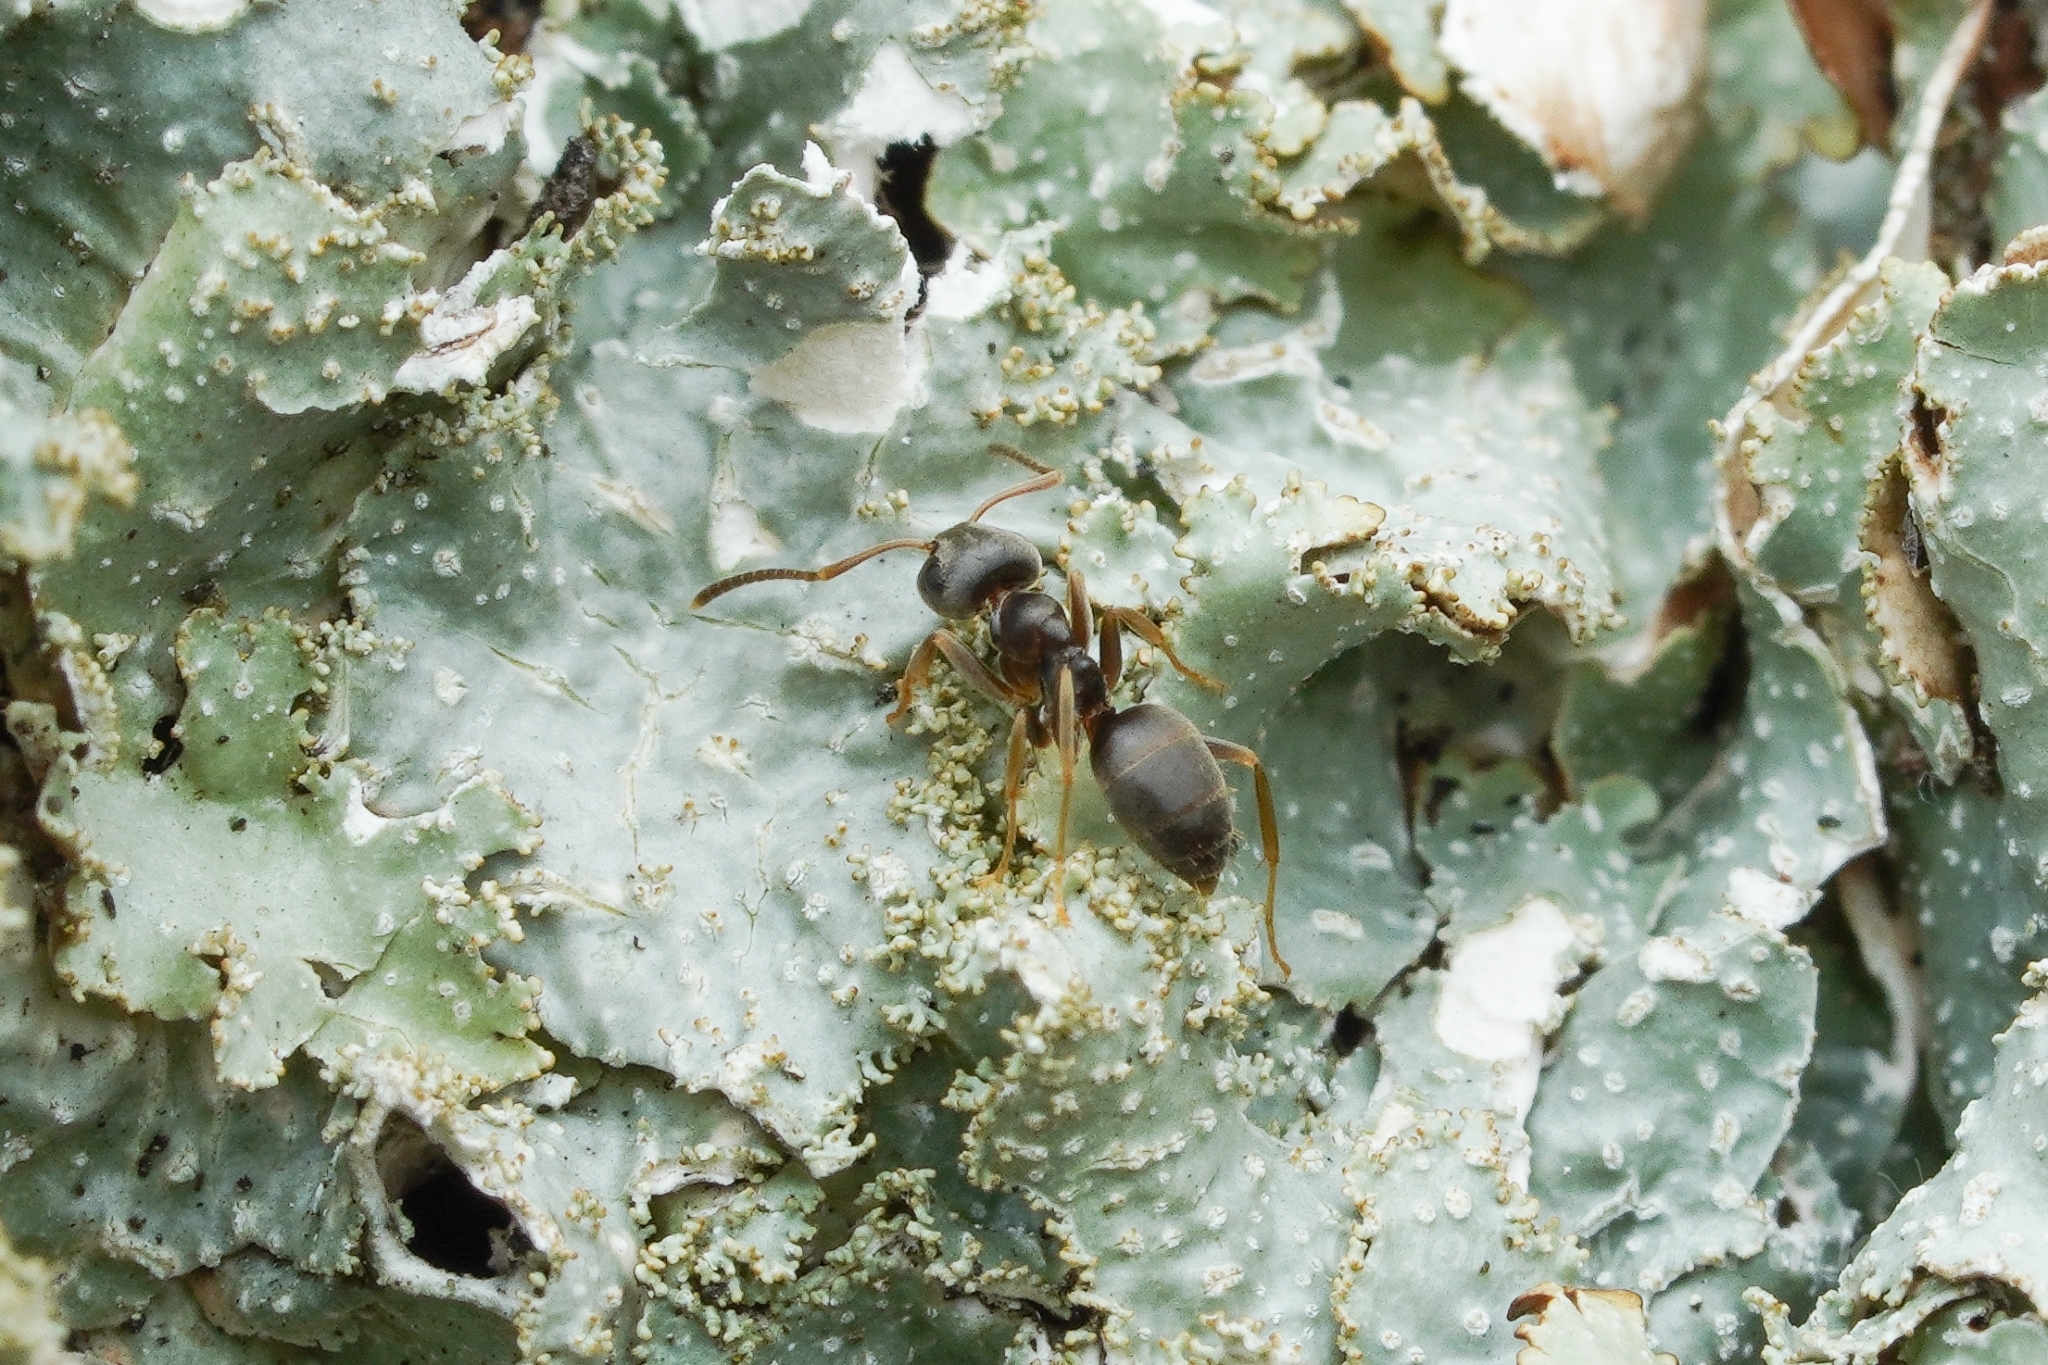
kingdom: Animalia
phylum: Arthropoda
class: Insecta
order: Hymenoptera
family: Formicidae
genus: Lasius
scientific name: Lasius americanus
